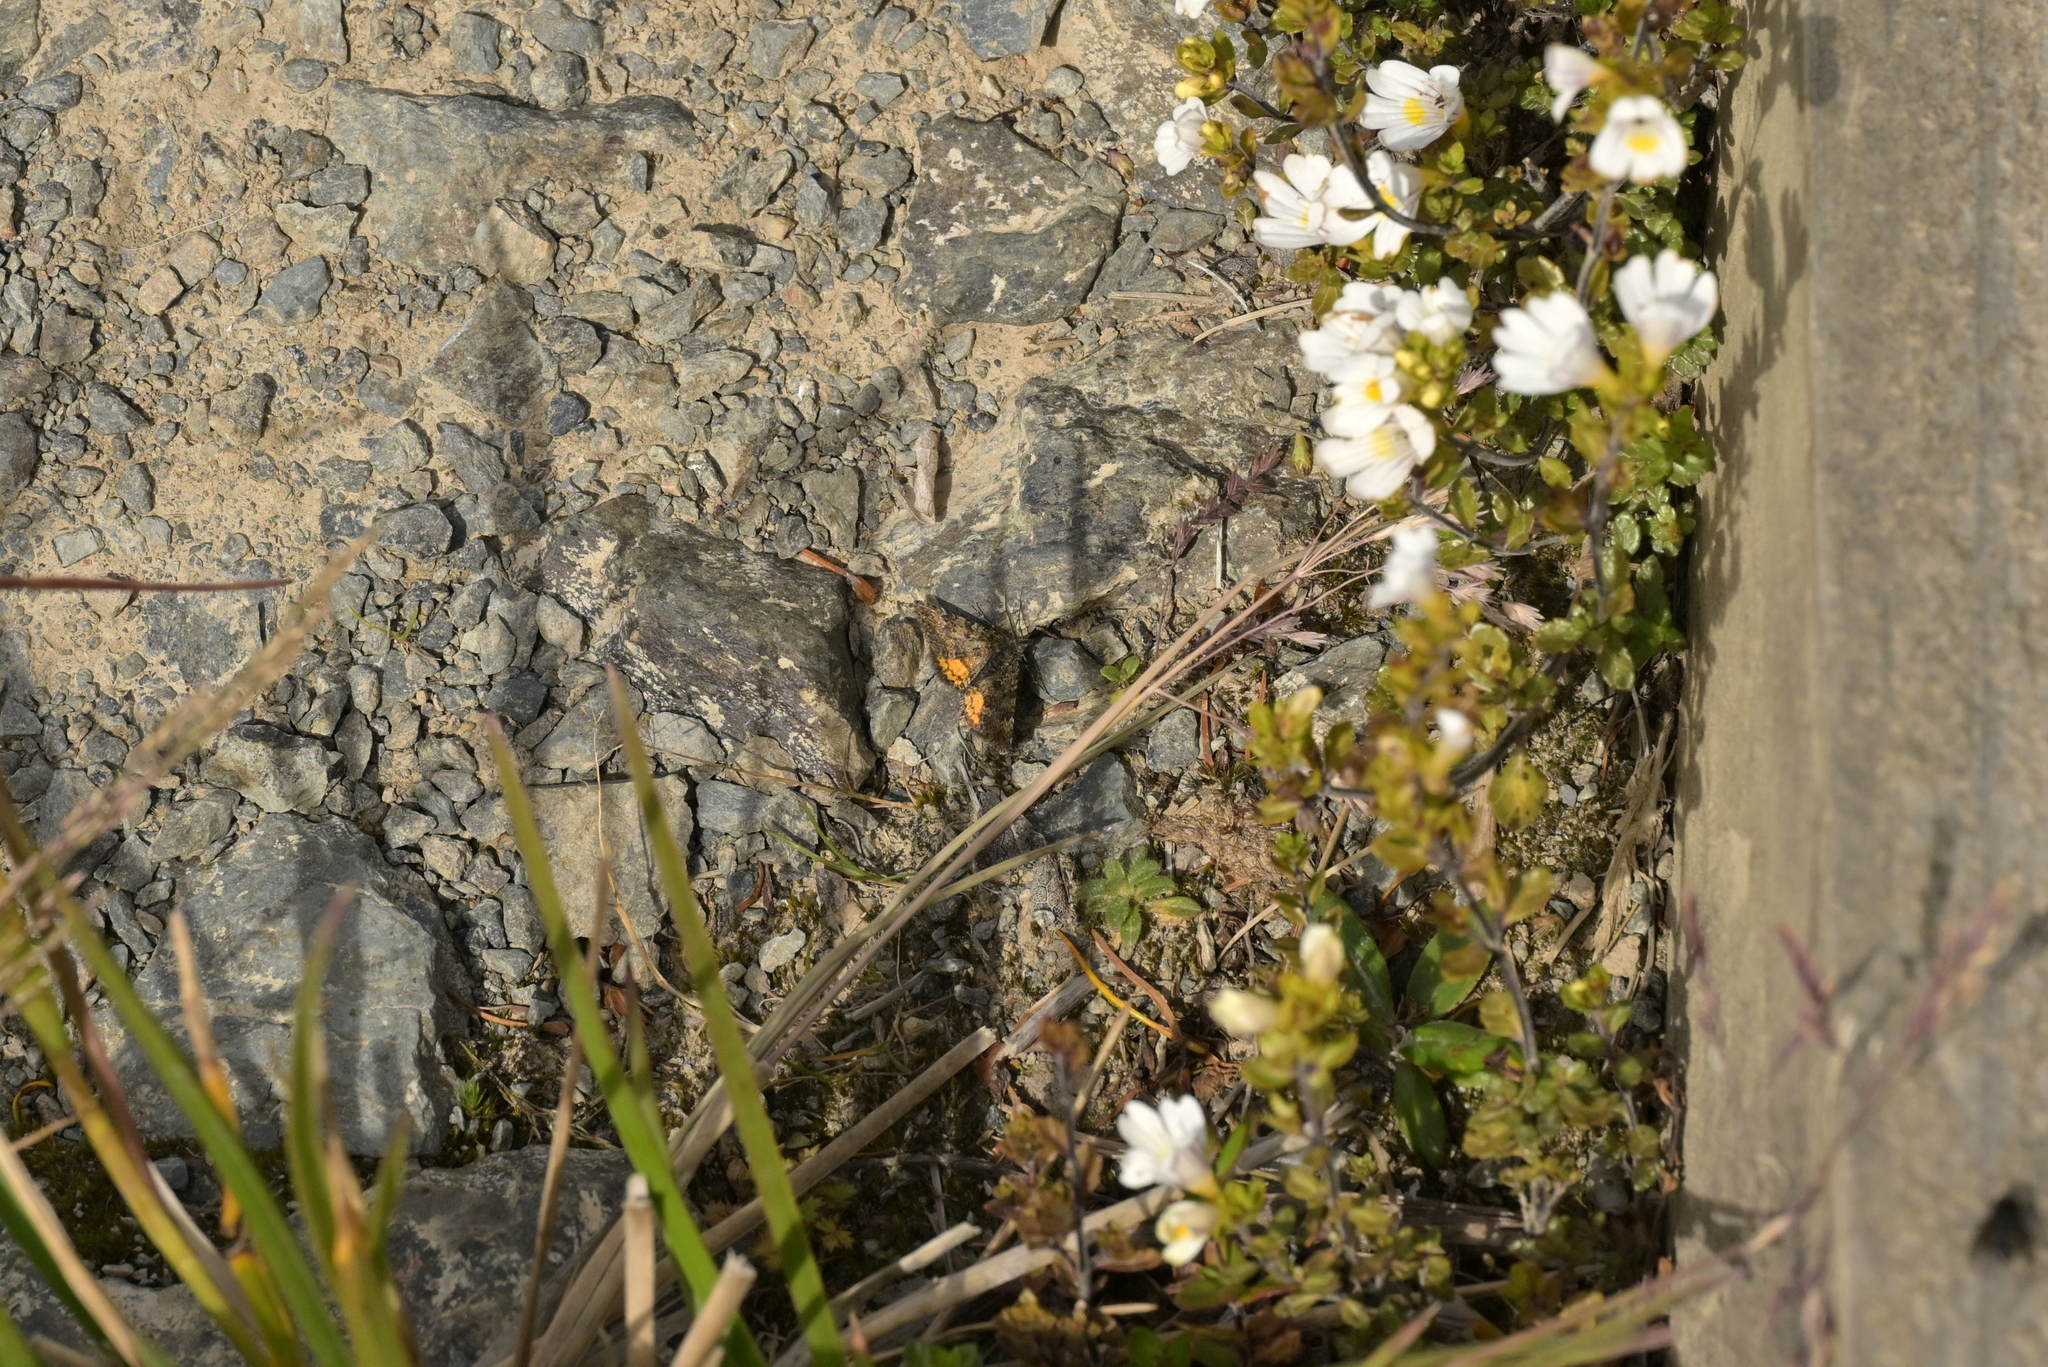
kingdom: Animalia
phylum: Arthropoda
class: Insecta
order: Lepidoptera
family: Geometridae
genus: Paranotoreas
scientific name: Paranotoreas brephosata
